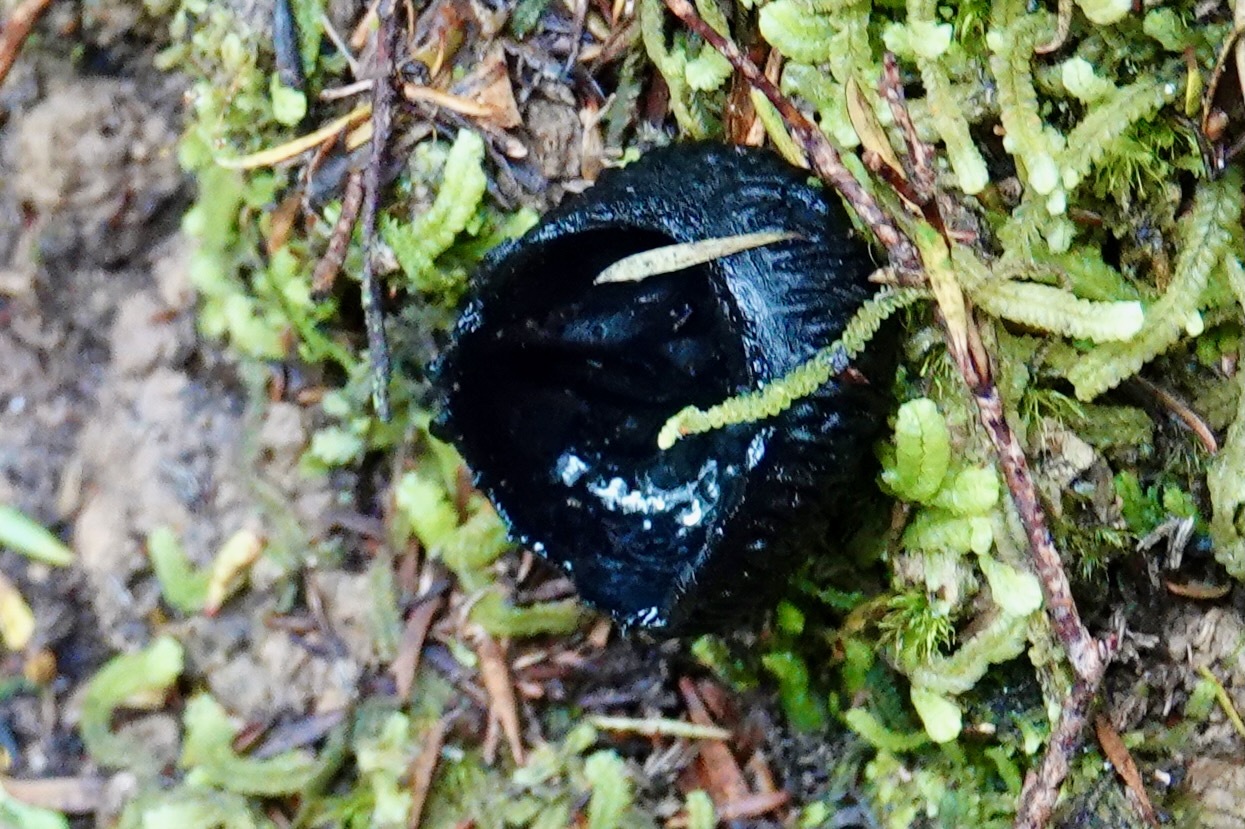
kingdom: Fungi
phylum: Ascomycota
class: Pezizomycetes
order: Pezizales
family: Sarcosomataceae
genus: Plectania
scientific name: Plectania rhytidia
